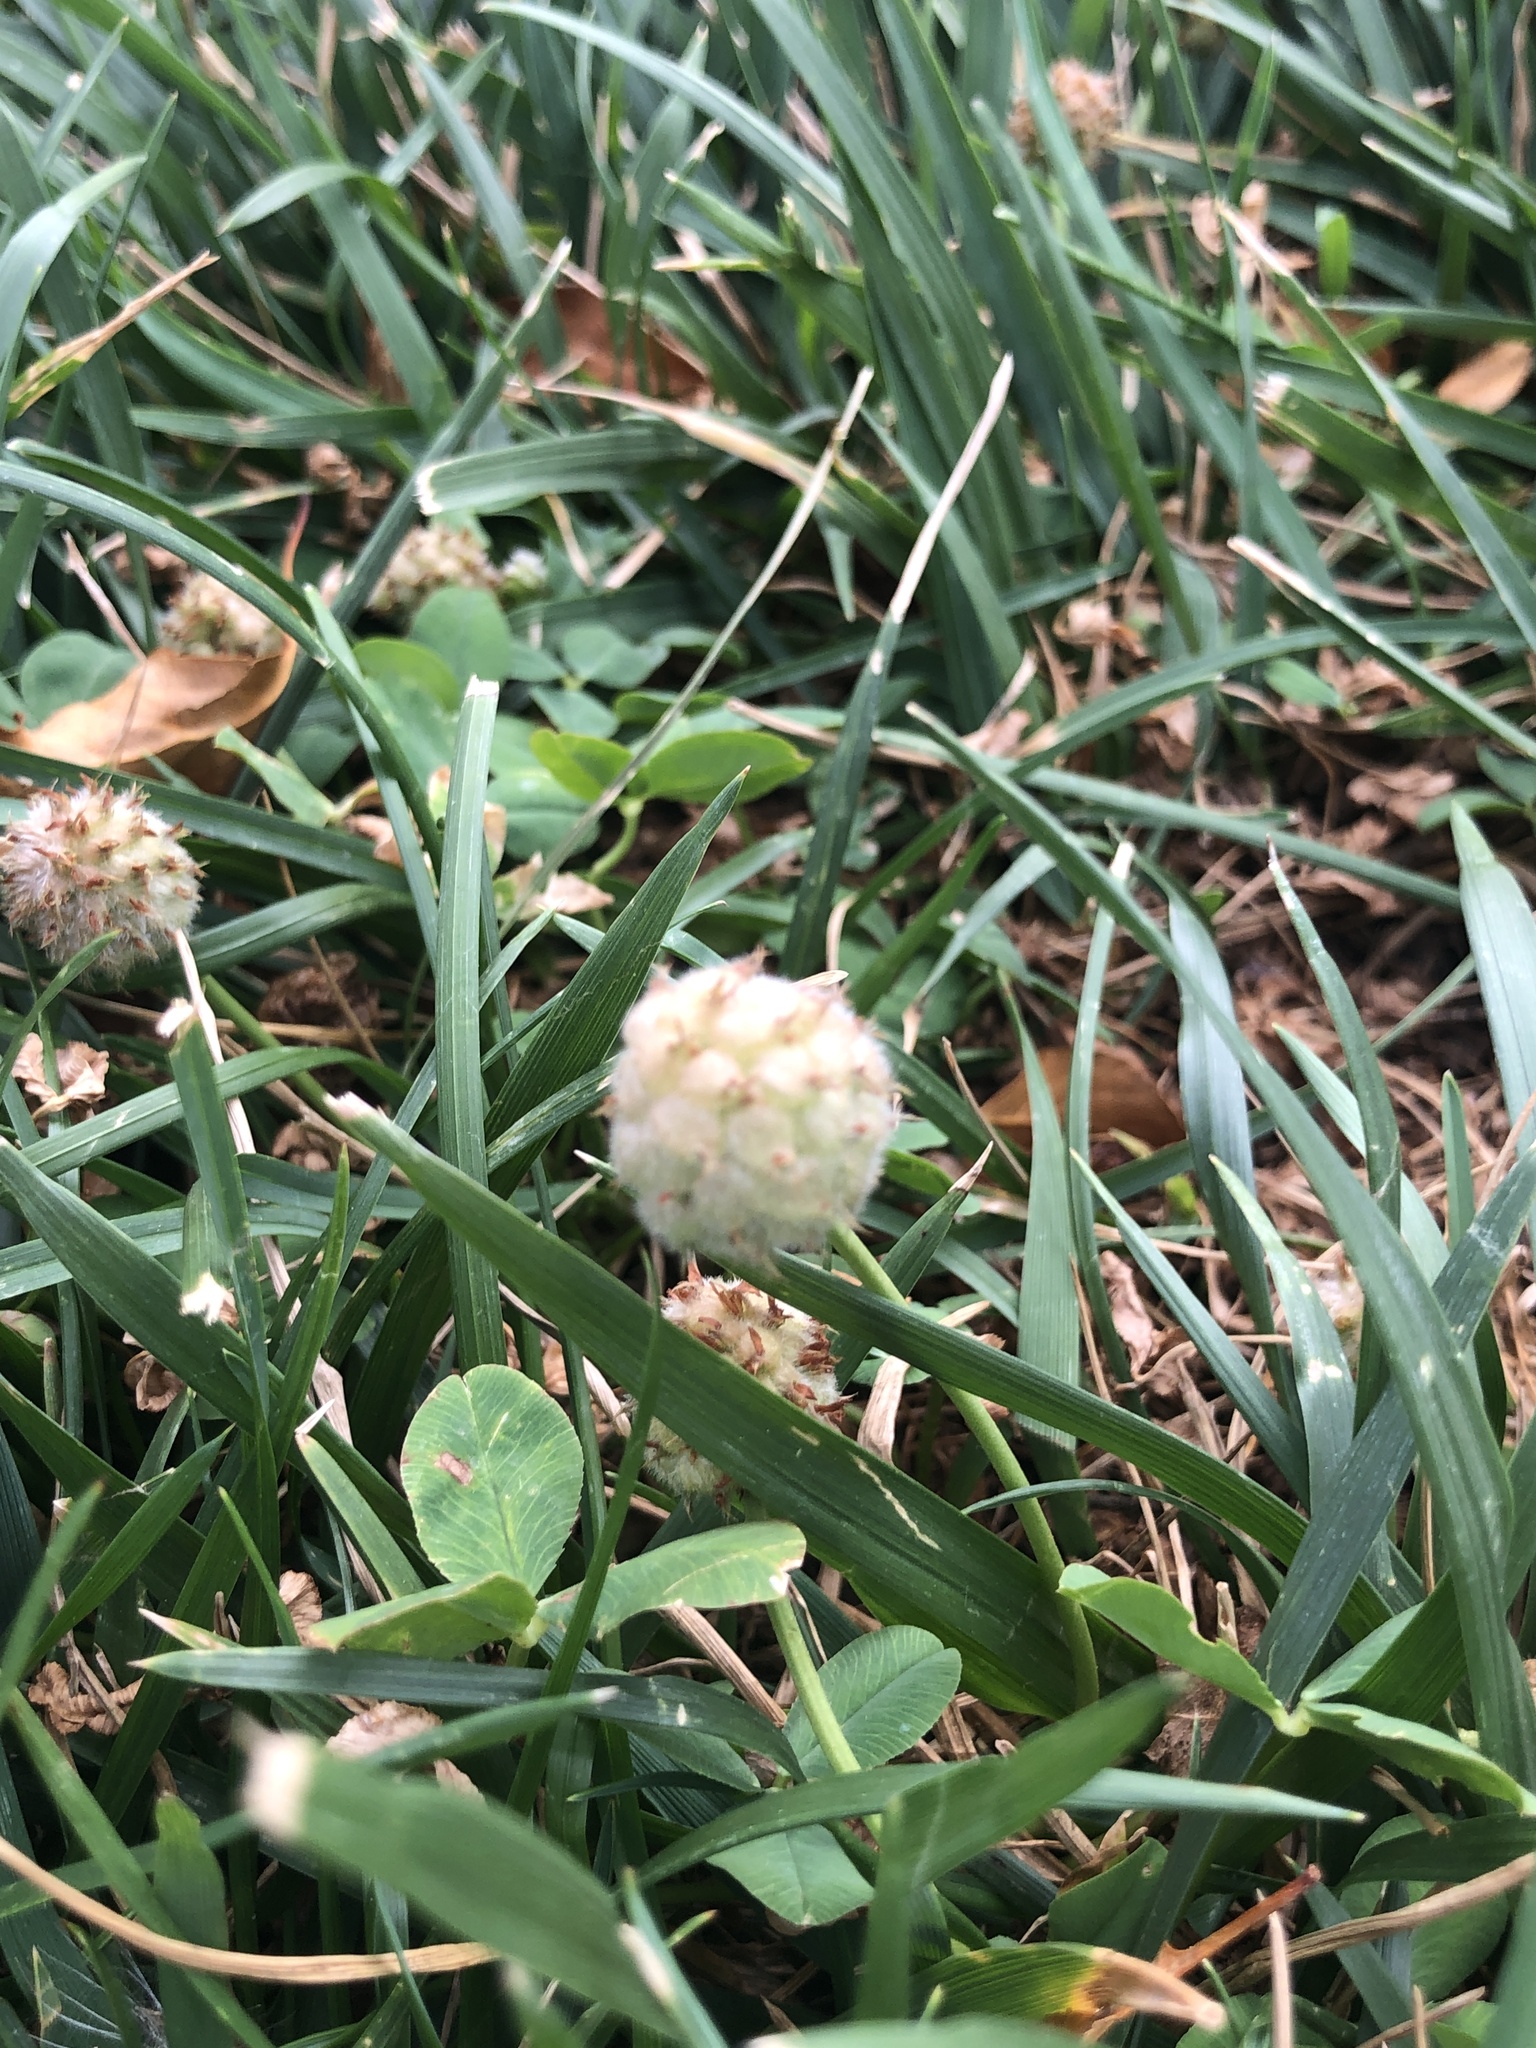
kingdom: Plantae
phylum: Tracheophyta
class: Magnoliopsida
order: Fabales
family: Fabaceae
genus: Trifolium
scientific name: Trifolium fragiferum
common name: Strawberry clover
